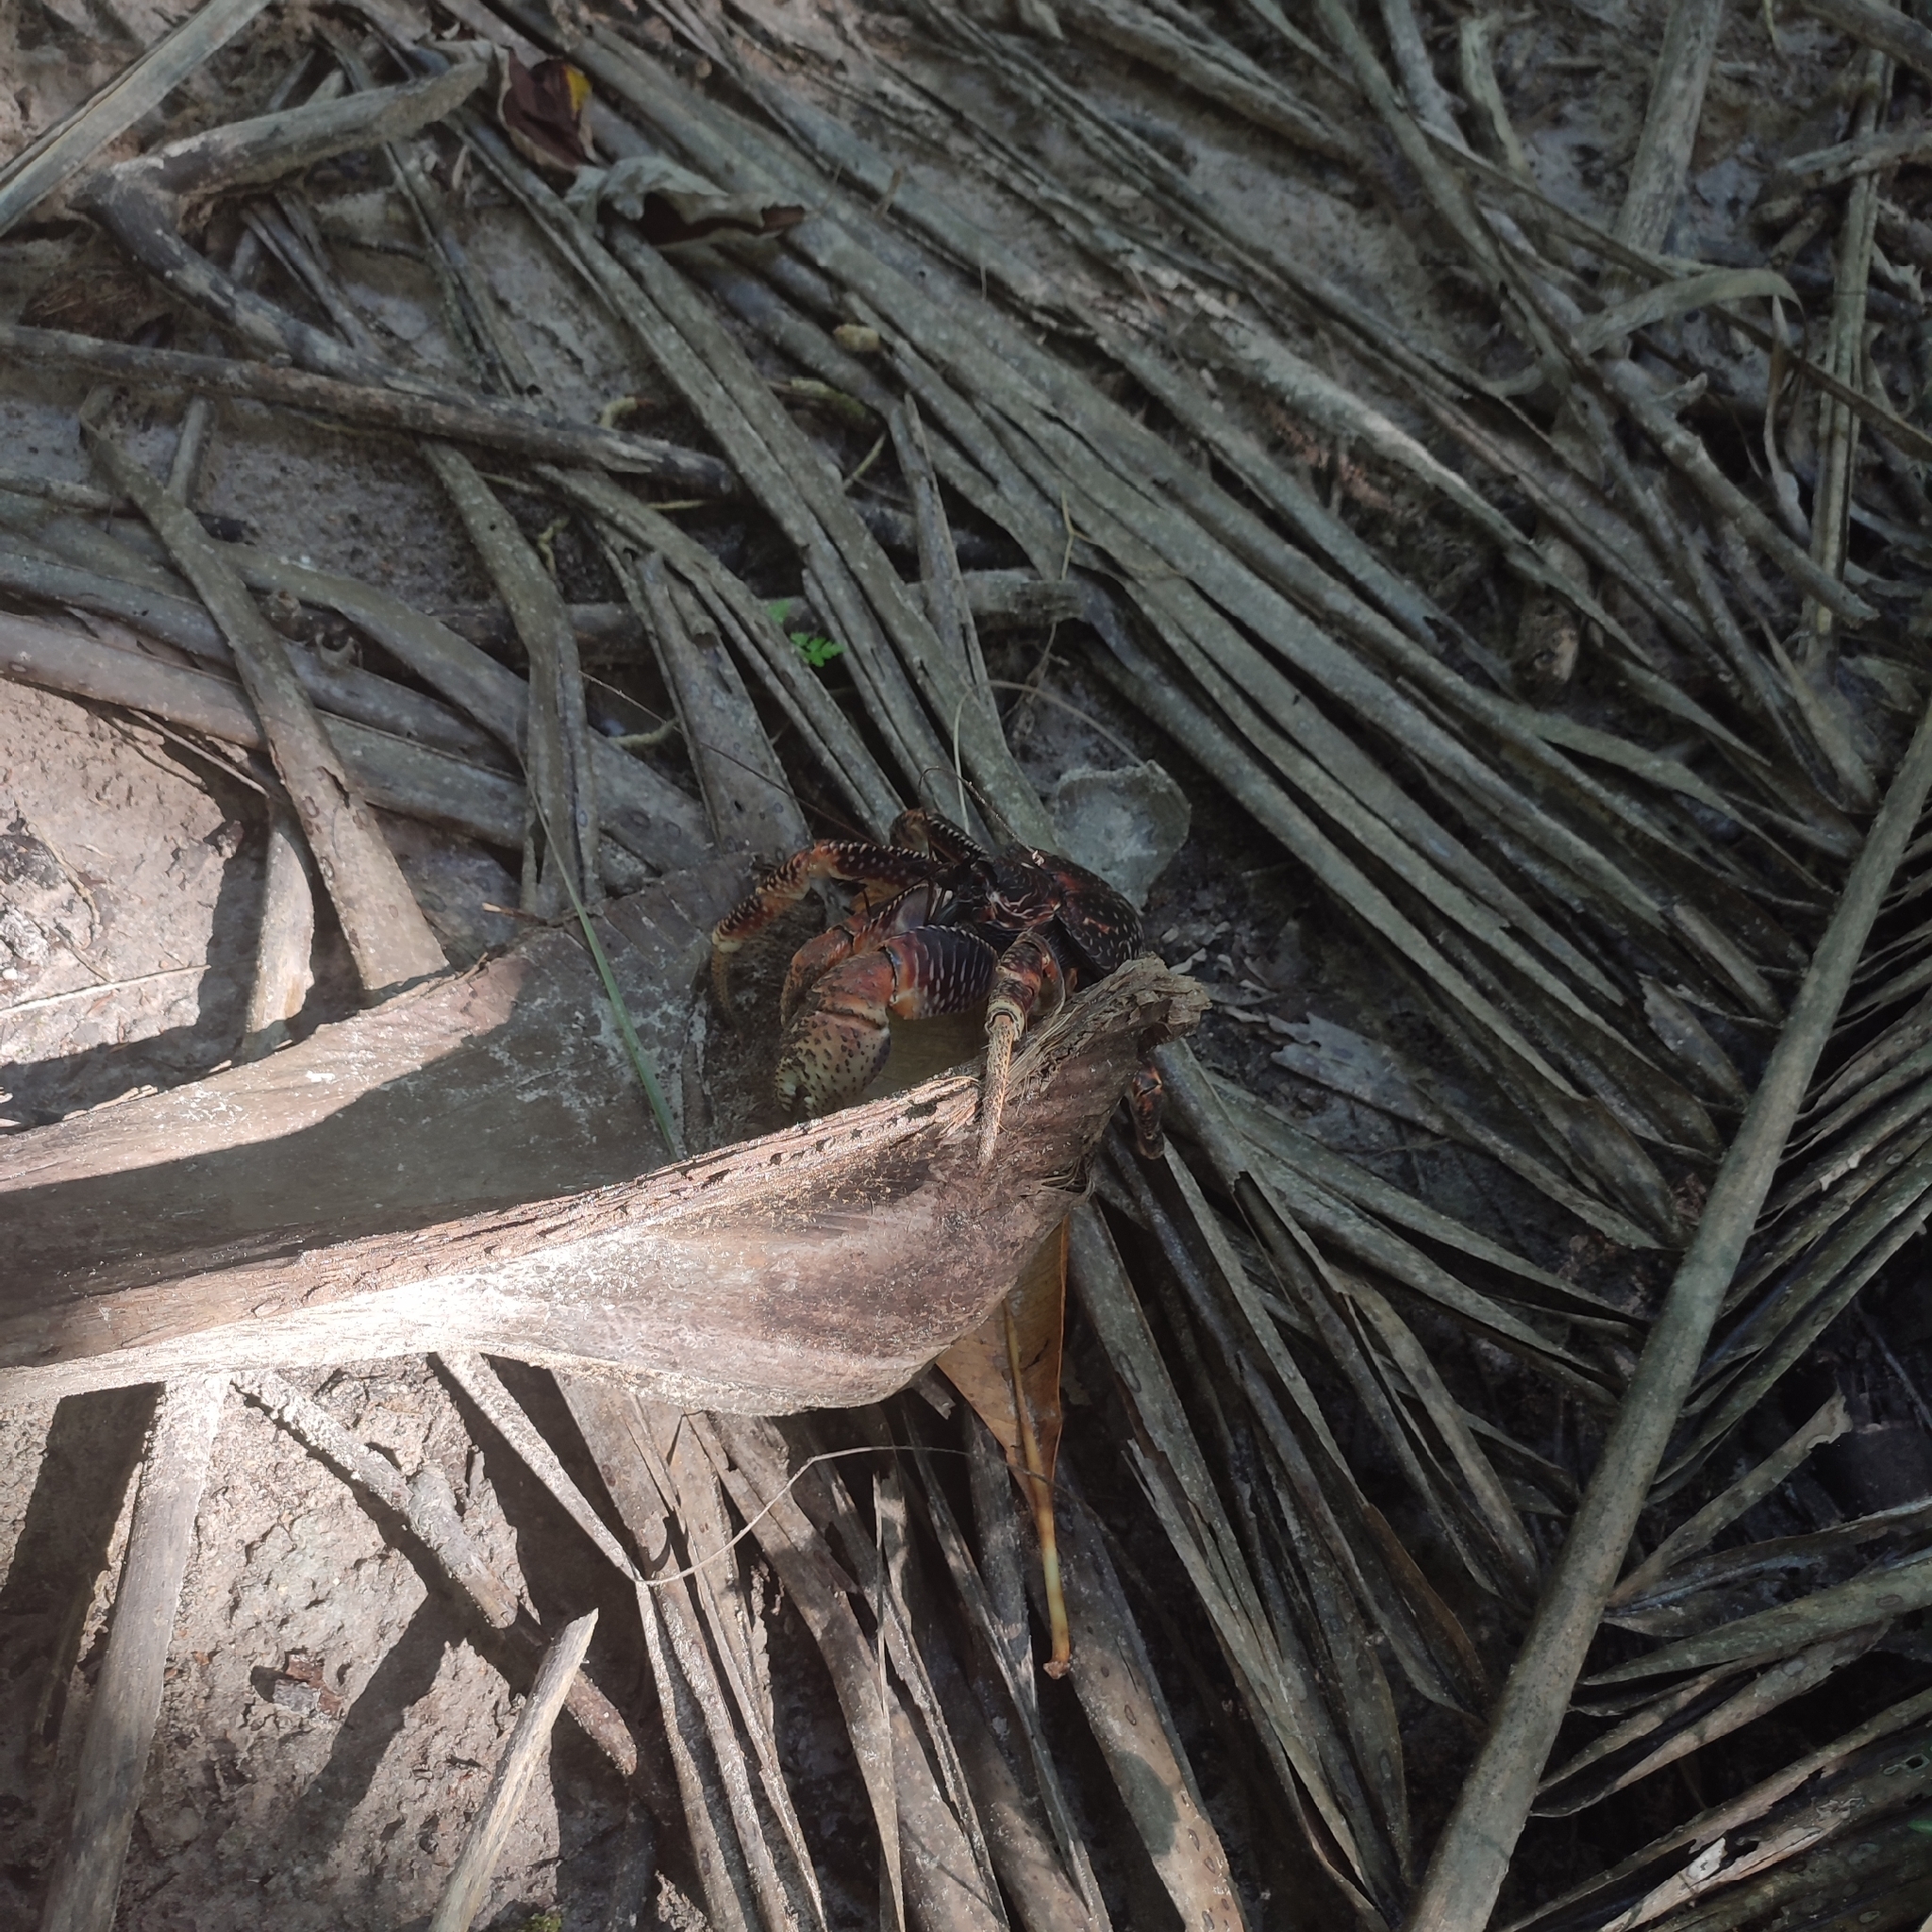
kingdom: Animalia
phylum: Arthropoda
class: Malacostraca
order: Decapoda
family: Coenobitidae
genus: Birgus
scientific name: Birgus latro
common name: Coconut crab
